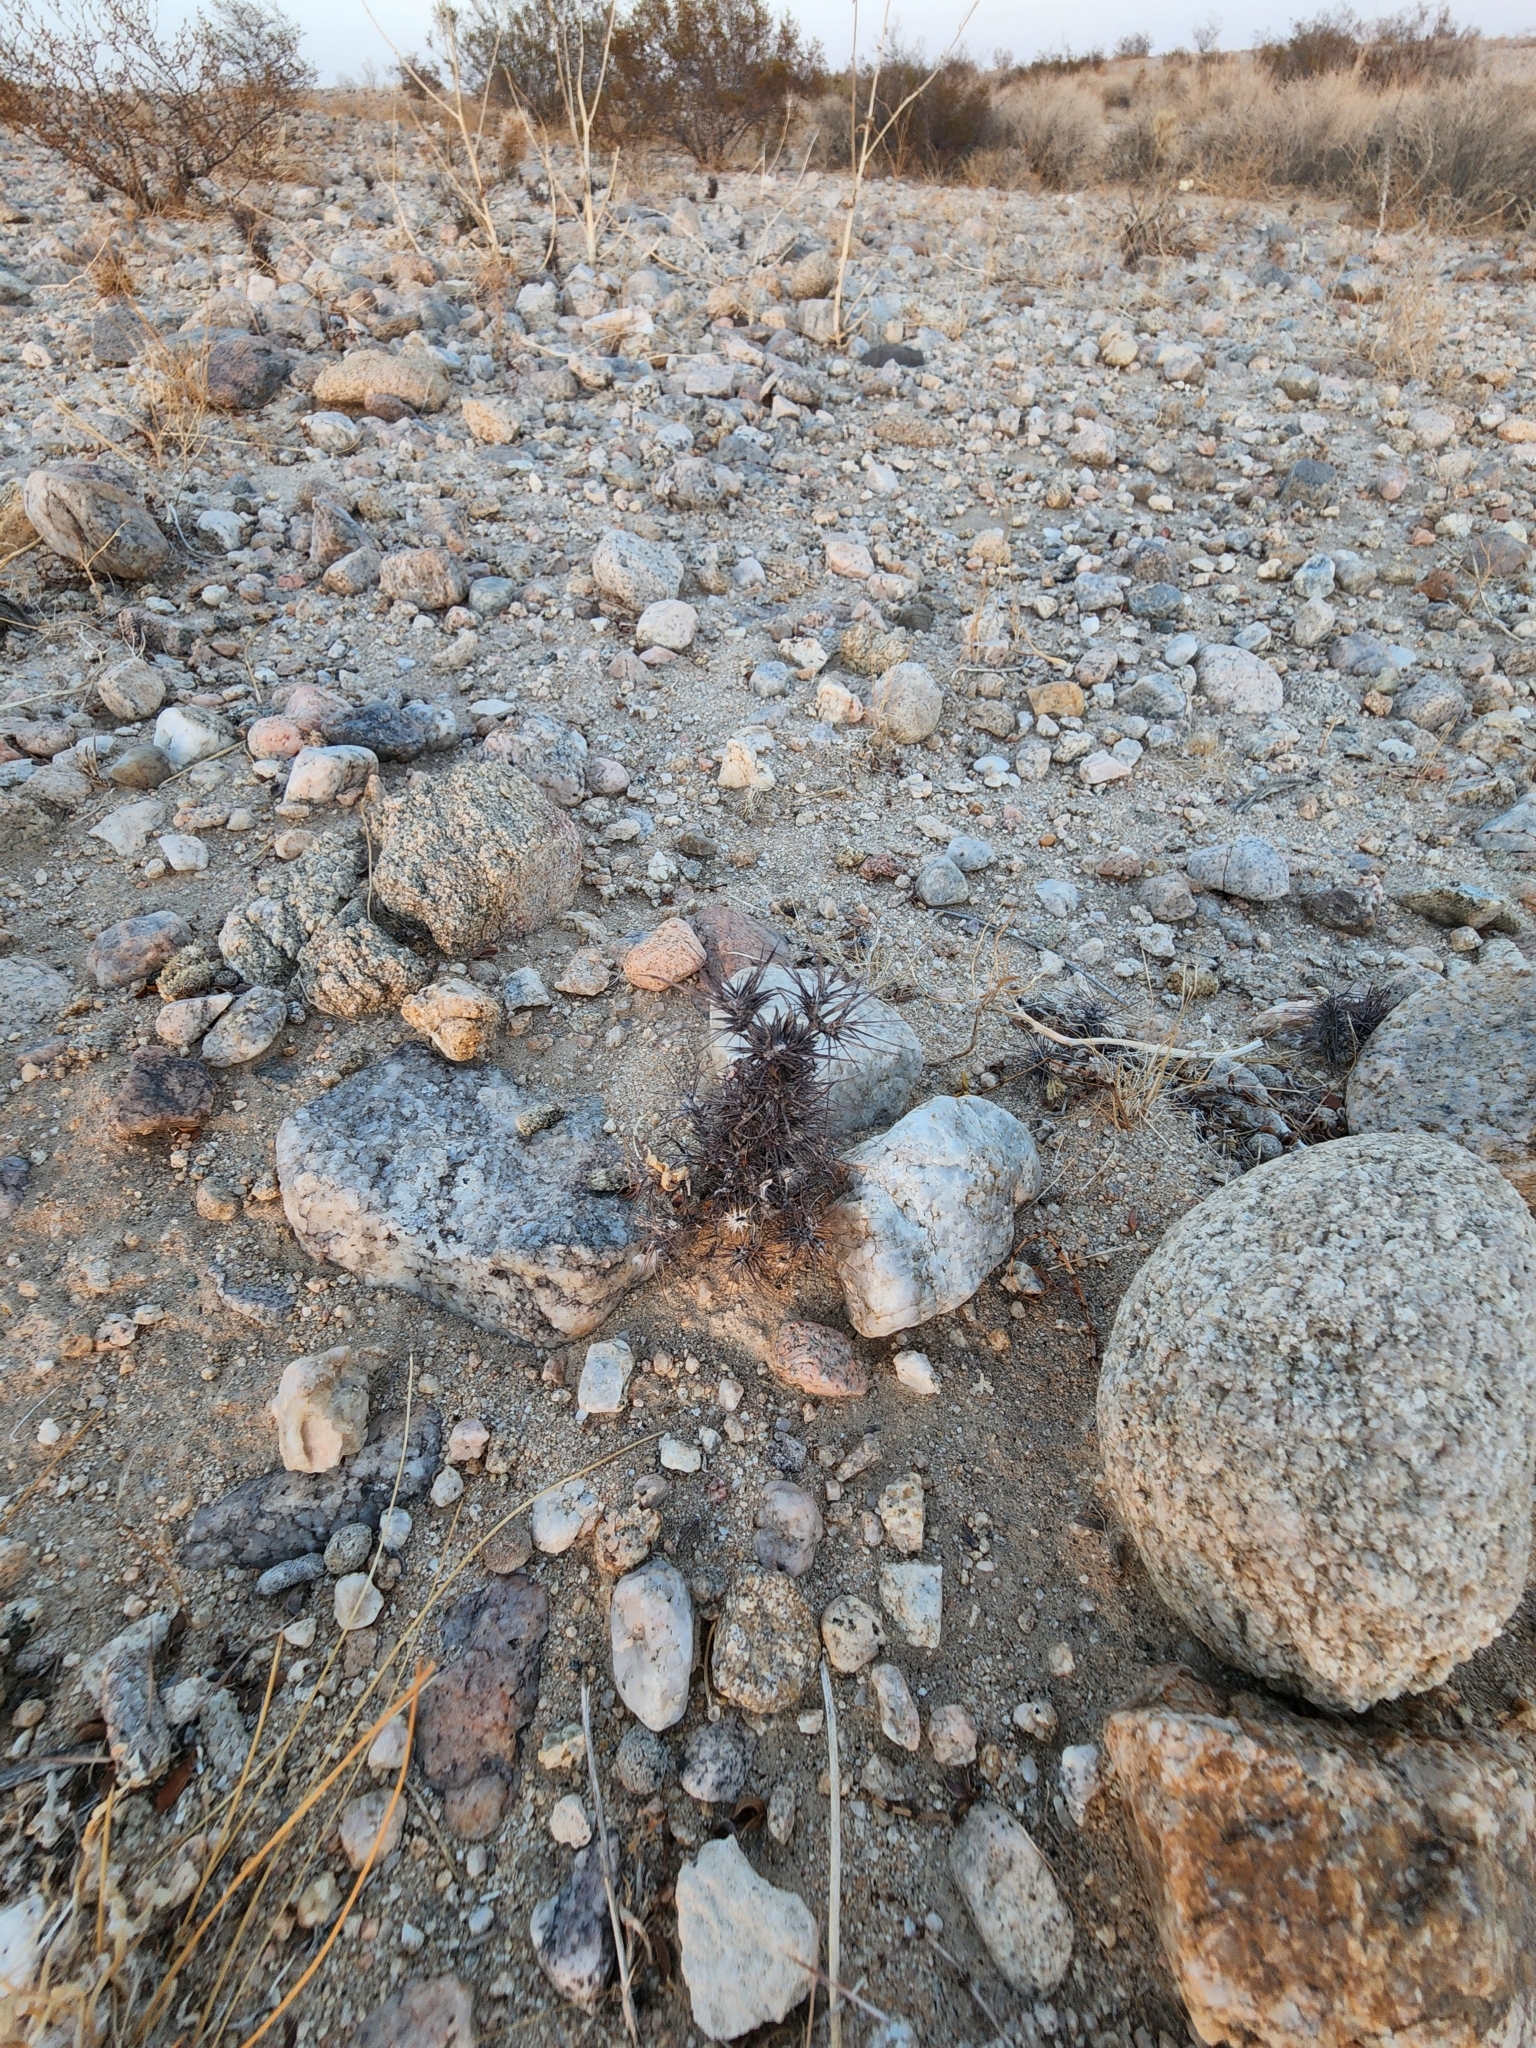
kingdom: Plantae
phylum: Tracheophyta
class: Magnoliopsida
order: Caryophyllales
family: Polygonaceae
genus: Chorizanthe
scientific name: Chorizanthe rigida
